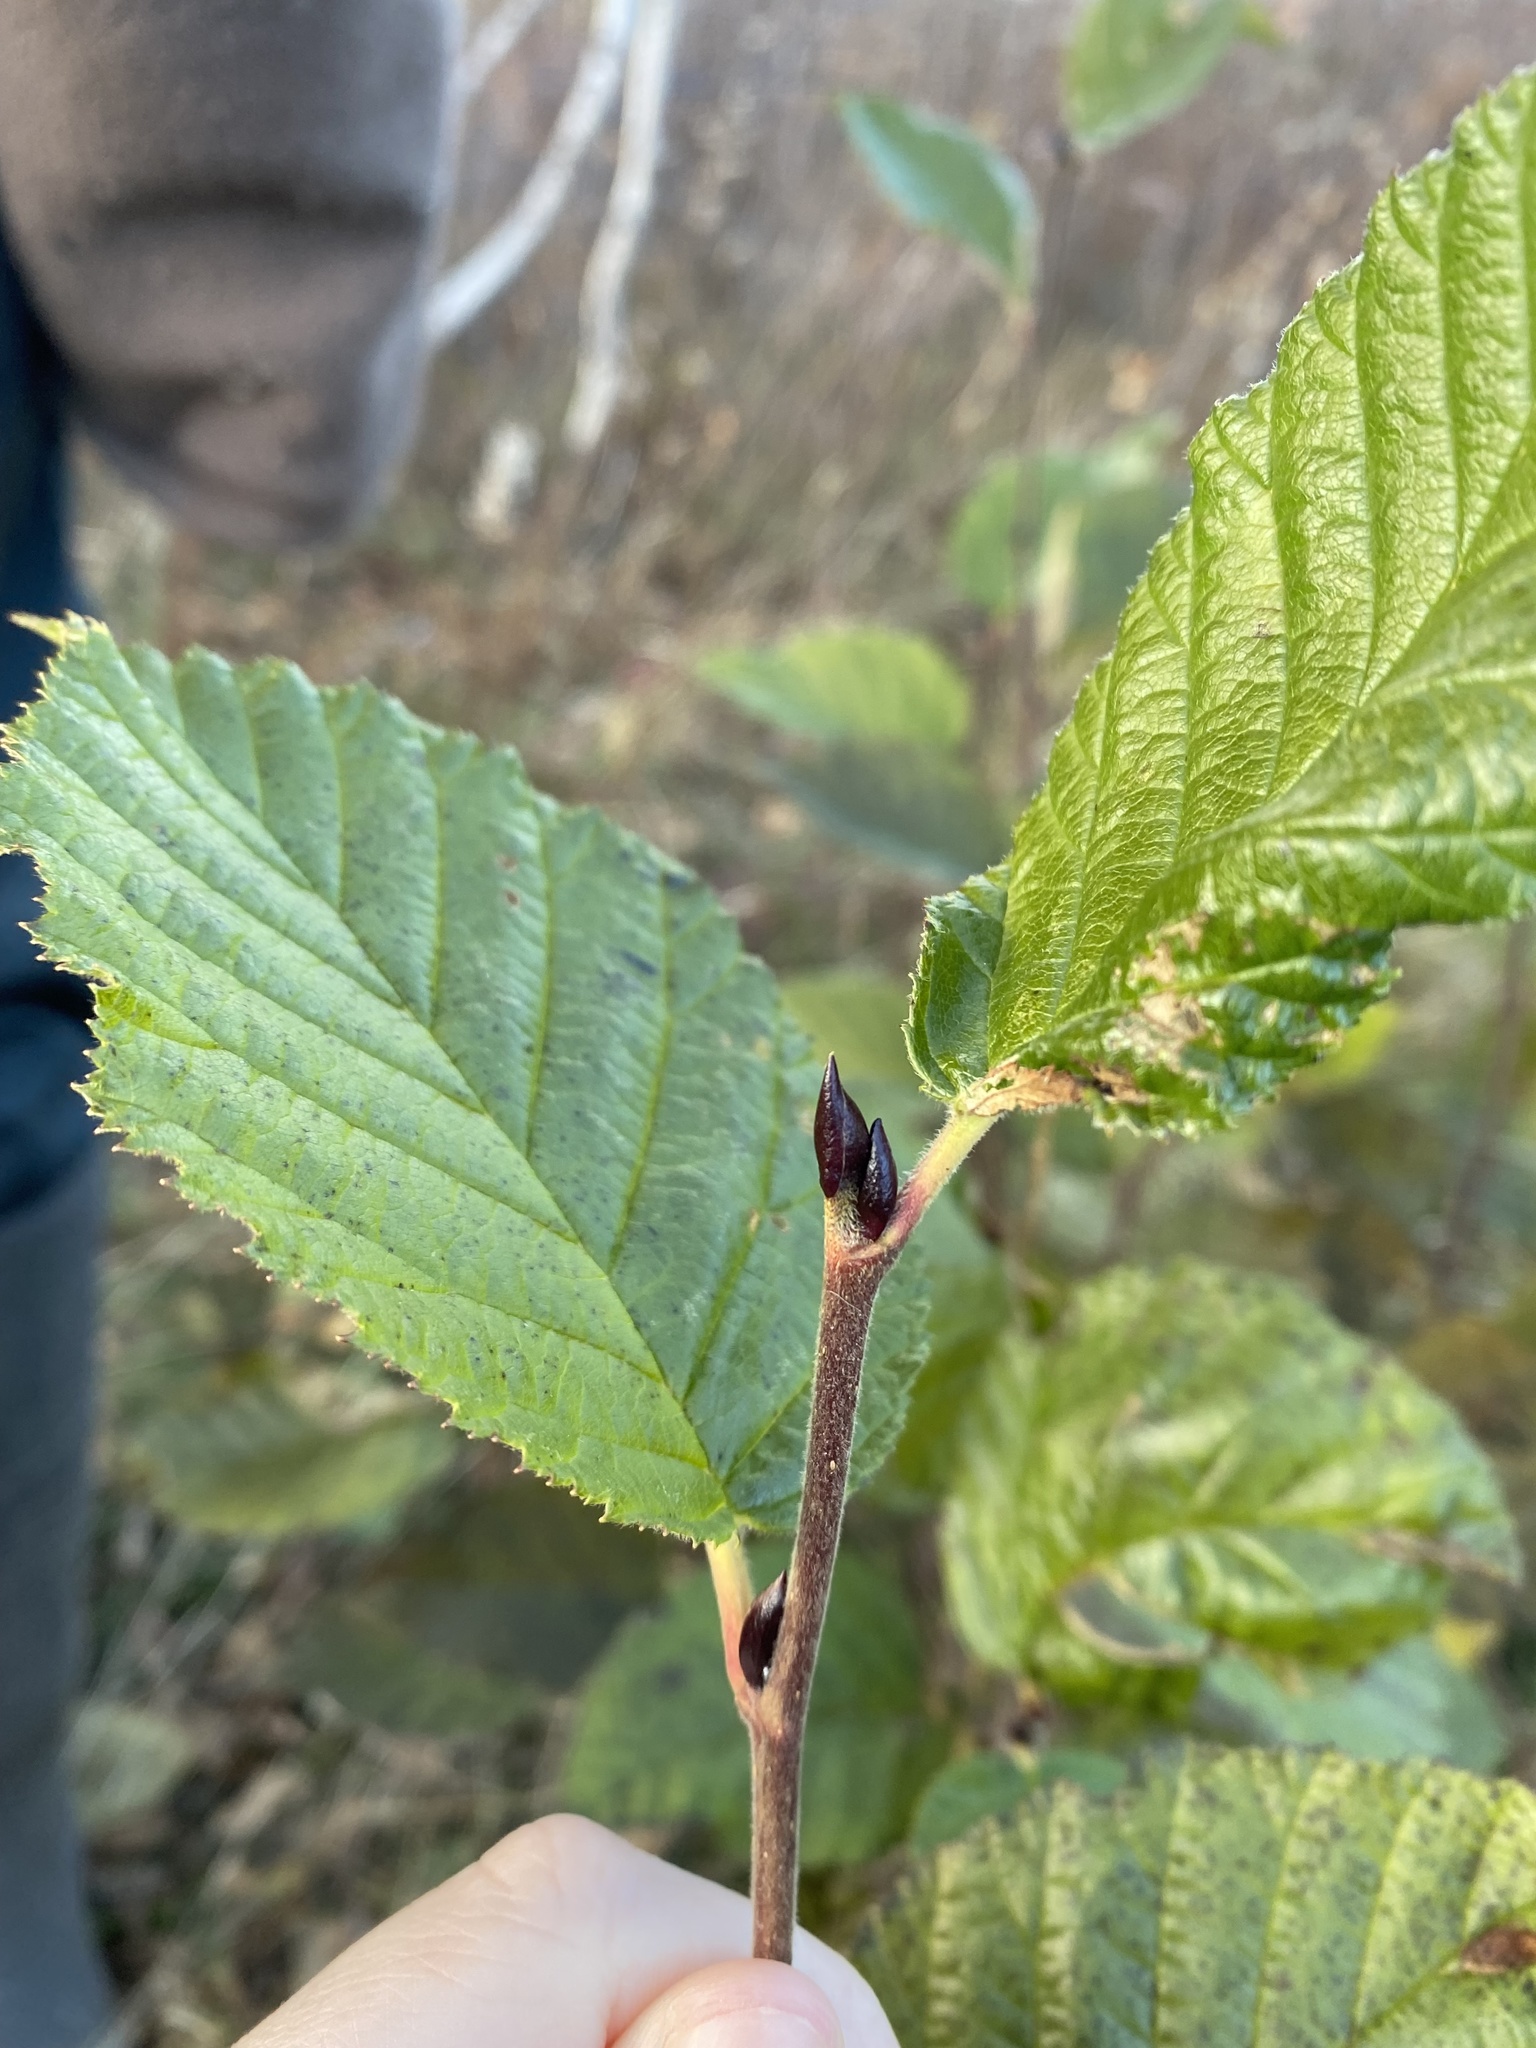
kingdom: Plantae
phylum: Tracheophyta
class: Magnoliopsida
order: Fagales
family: Betulaceae
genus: Alnus
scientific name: Alnus alnobetula
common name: Green alder
